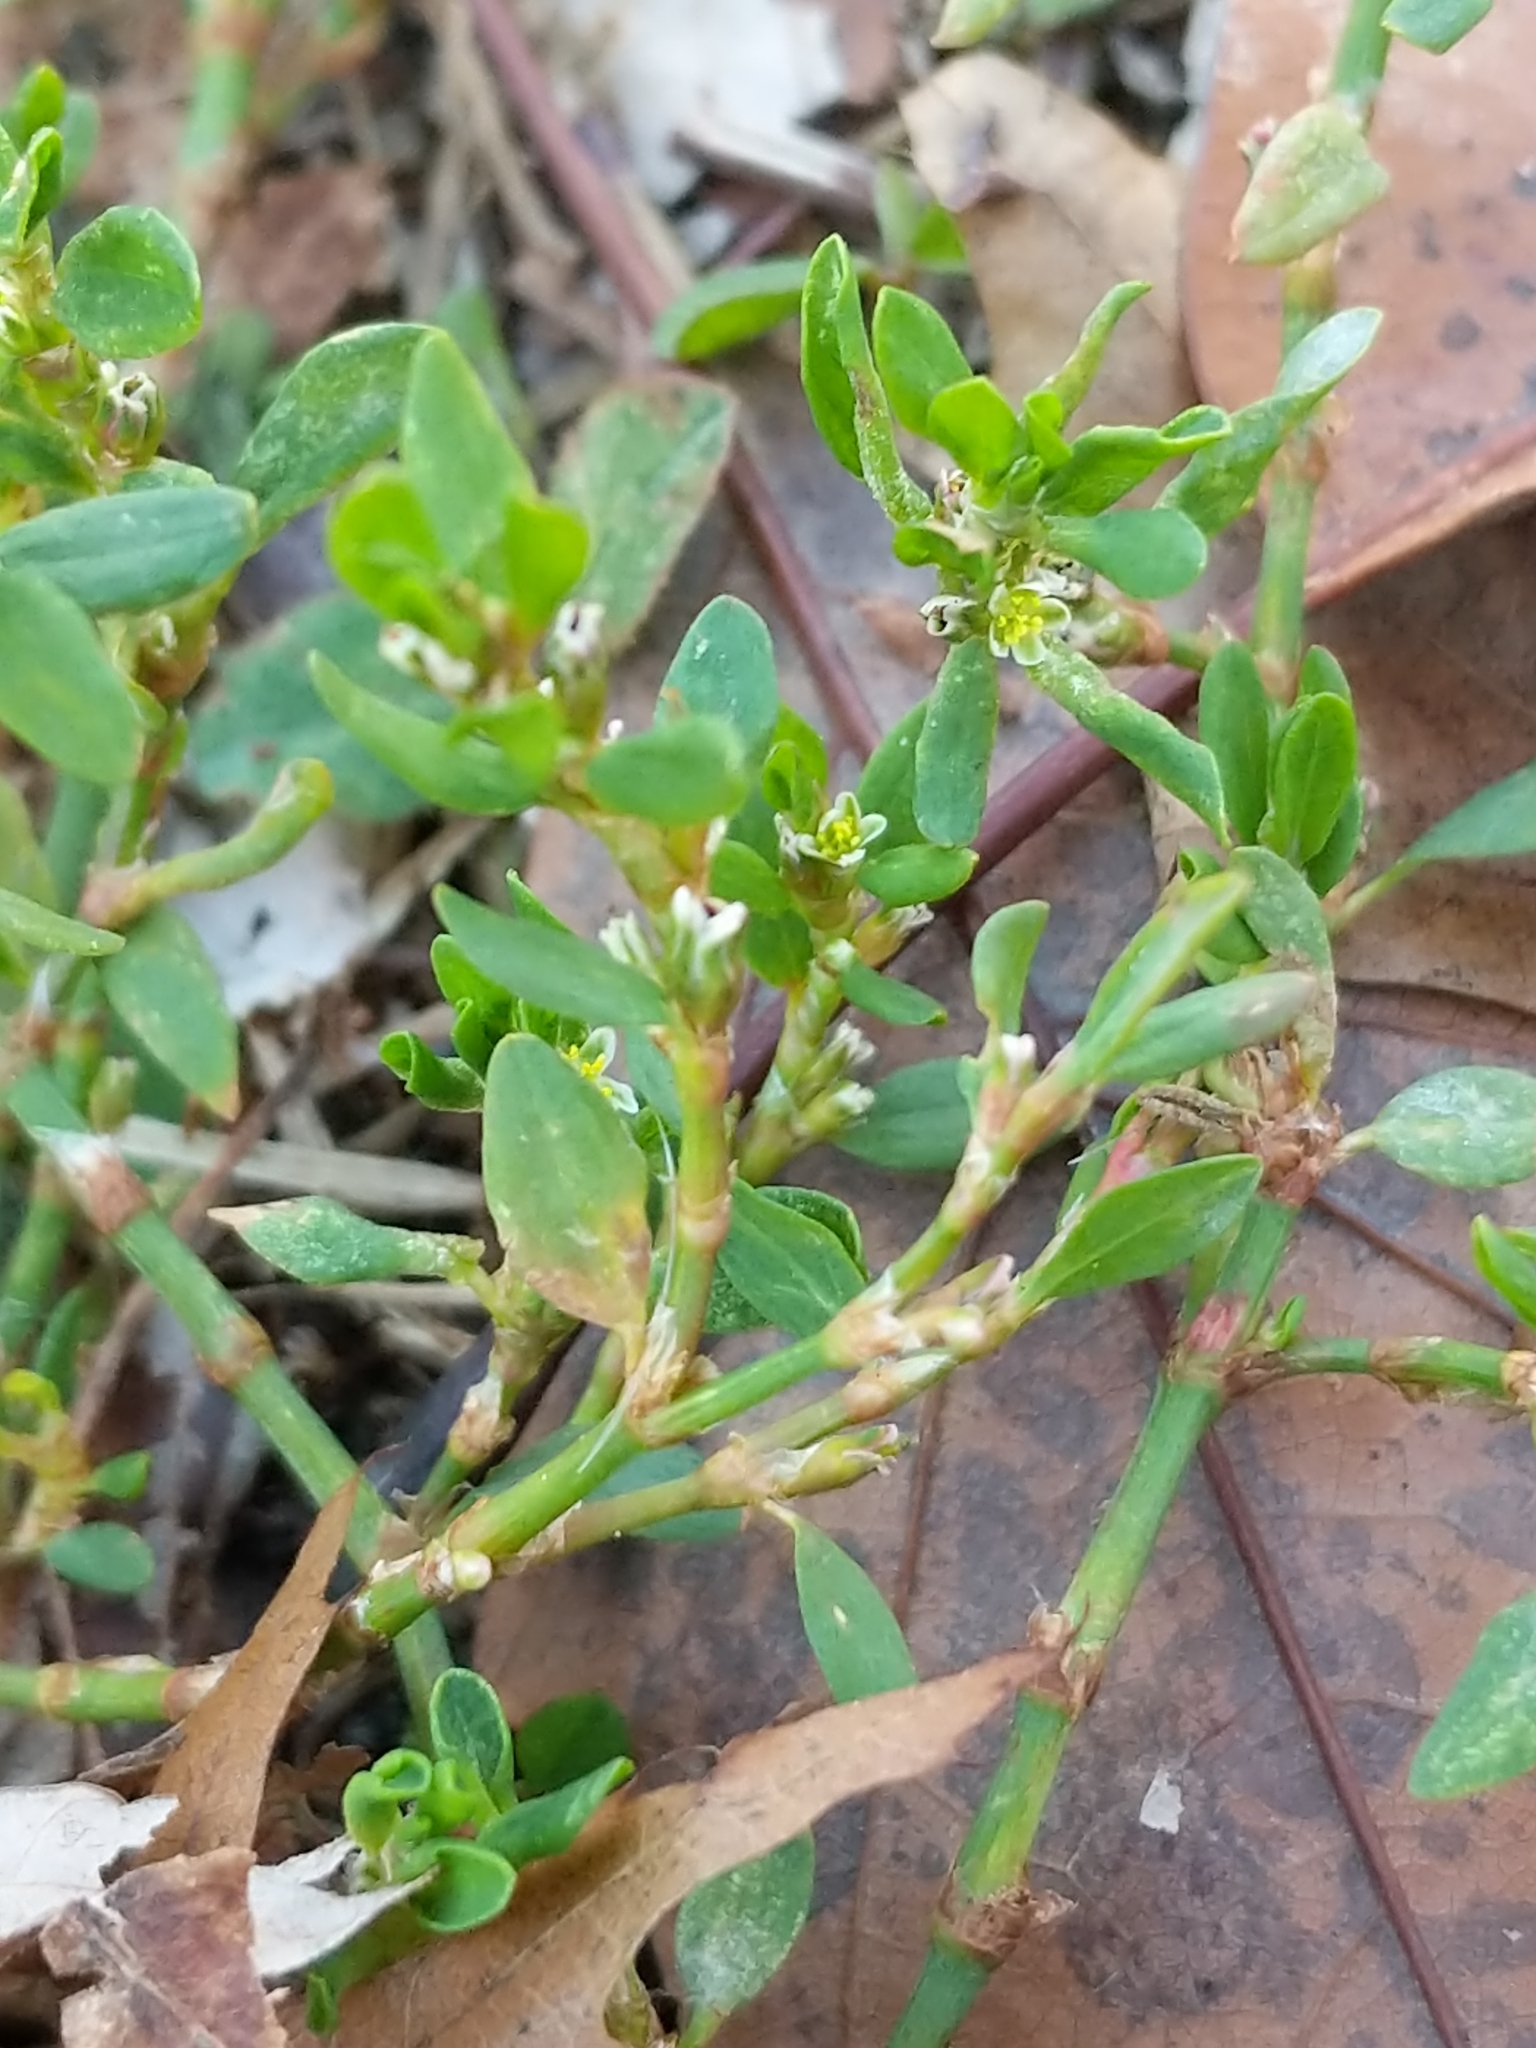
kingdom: Plantae
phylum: Tracheophyta
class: Magnoliopsida
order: Caryophyllales
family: Polygonaceae
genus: Polygonum
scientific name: Polygonum aviculare
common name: Prostrate knotweed
